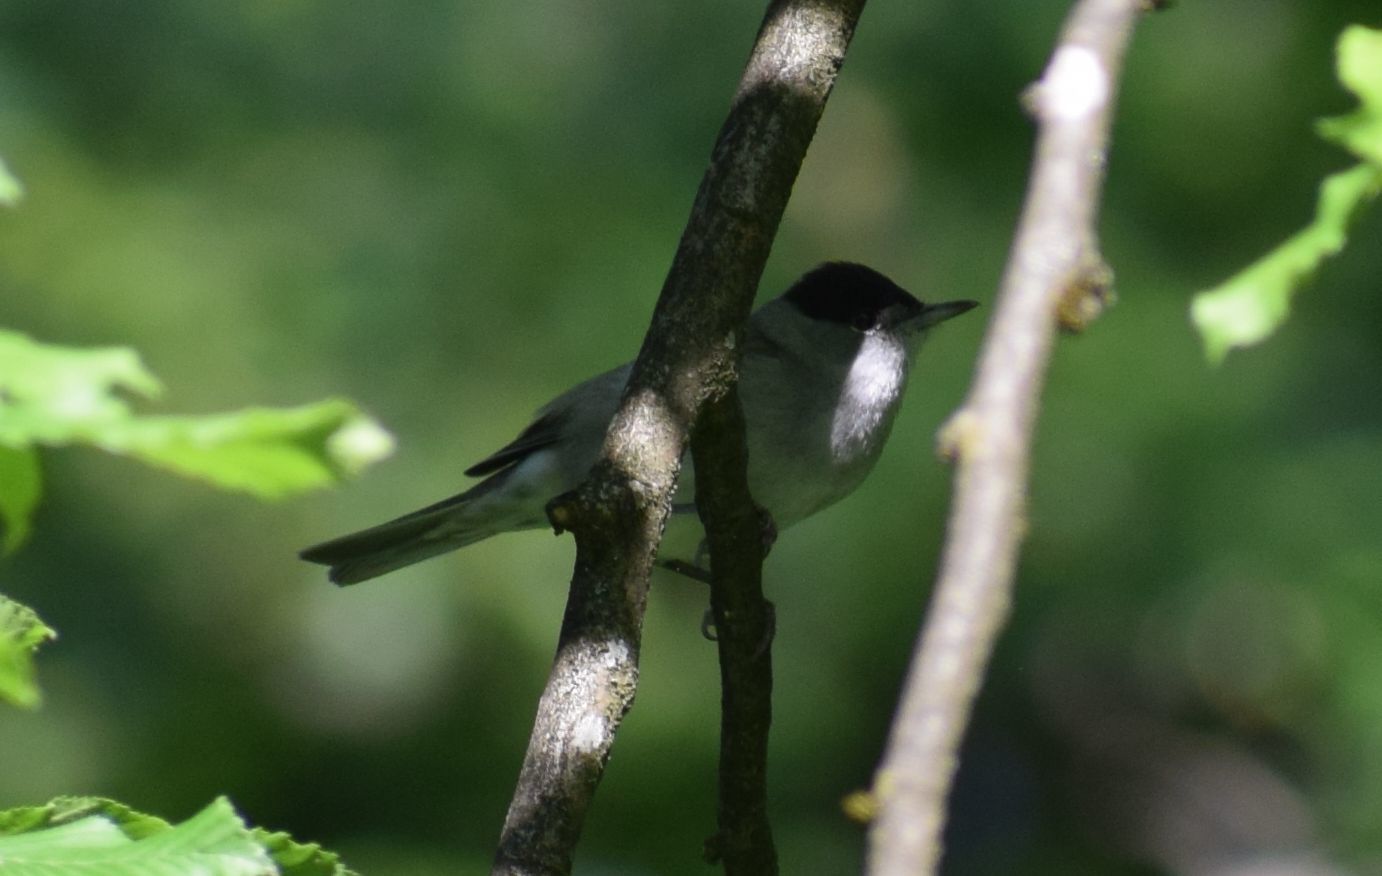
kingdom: Animalia
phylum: Chordata
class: Aves
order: Passeriformes
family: Sylviidae
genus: Sylvia
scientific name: Sylvia atricapilla
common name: Eurasian blackcap
